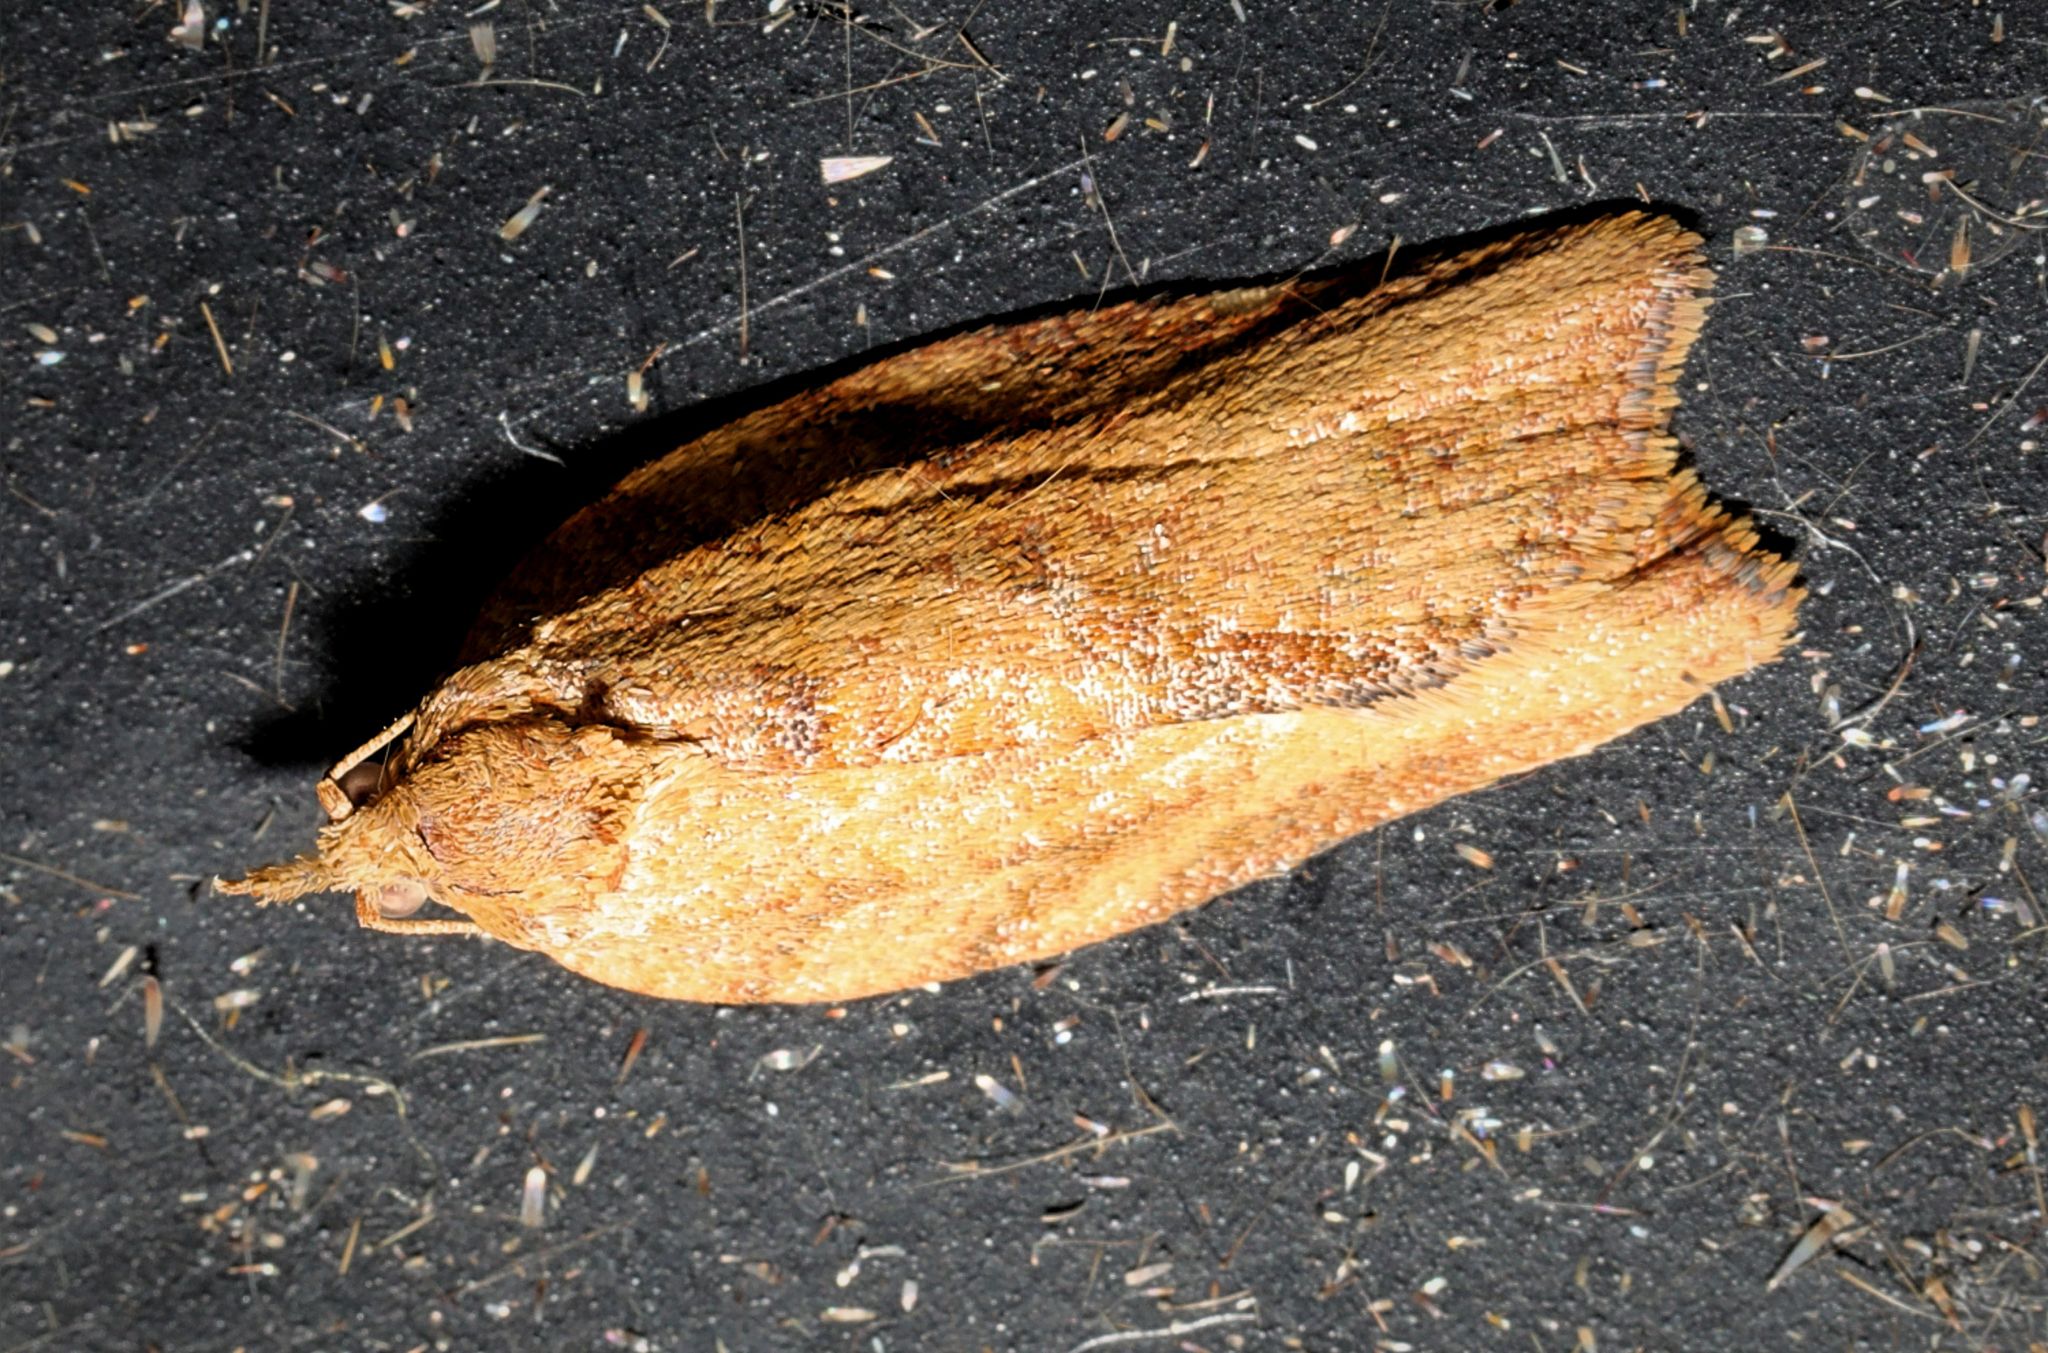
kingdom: Animalia
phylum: Arthropoda
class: Insecta
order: Lepidoptera
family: Tortricidae
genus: Epiphyas
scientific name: Epiphyas postvittana
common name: Light brown apple moth
